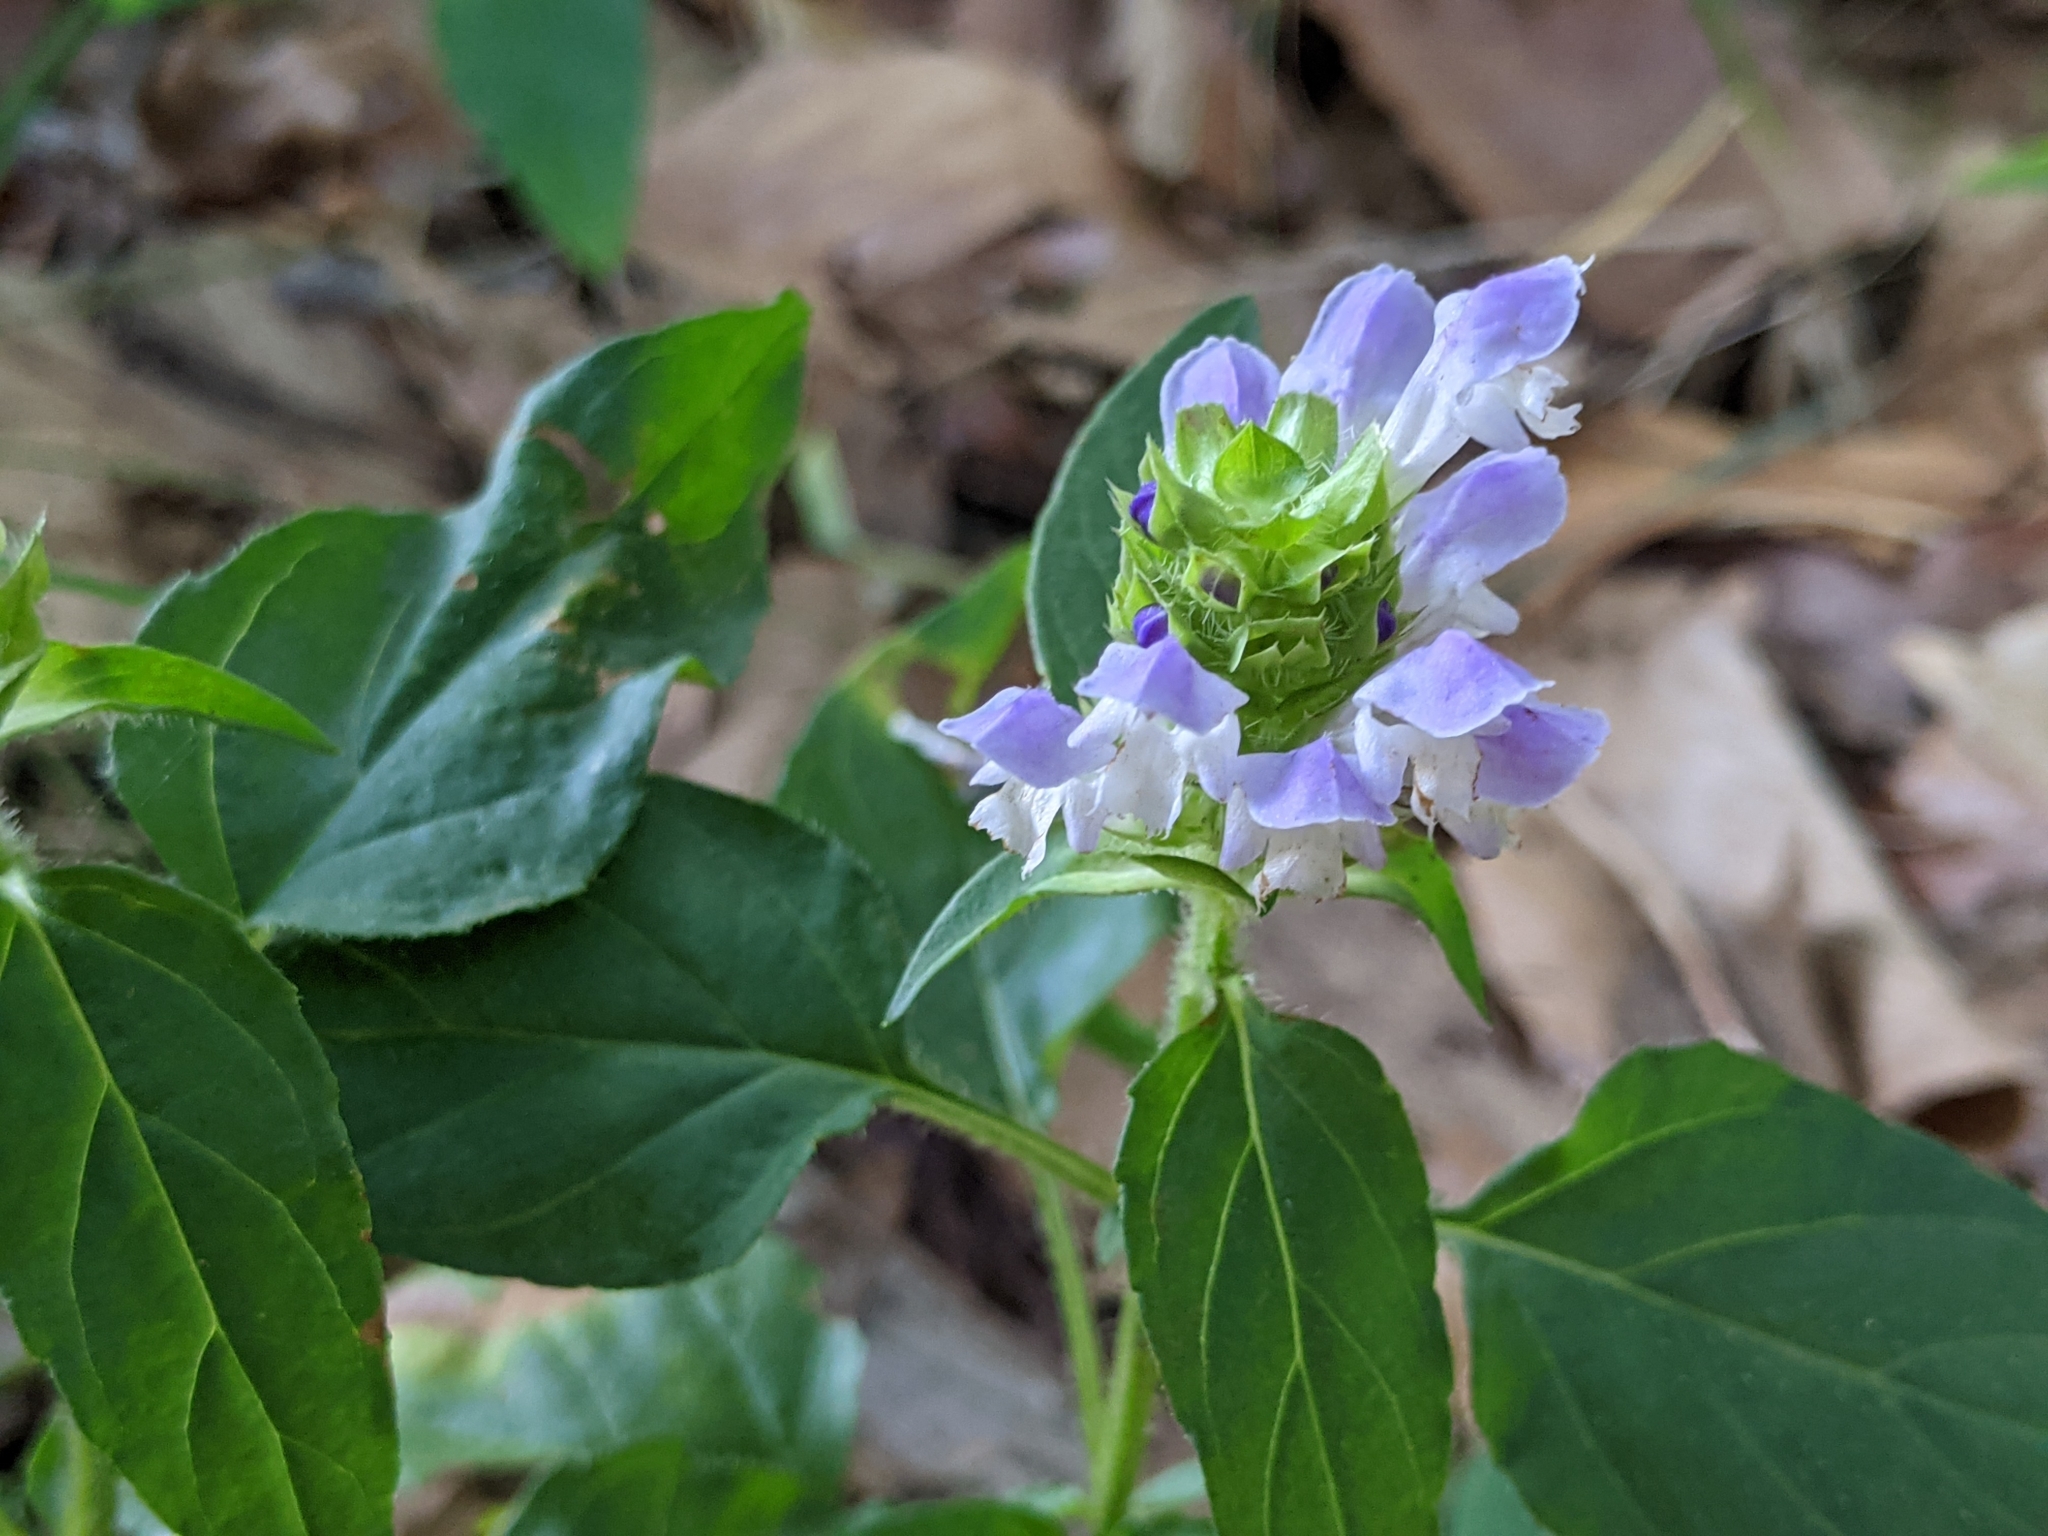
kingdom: Plantae
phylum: Tracheophyta
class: Magnoliopsida
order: Lamiales
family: Lamiaceae
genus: Prunella
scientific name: Prunella vulgaris
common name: Heal-all
